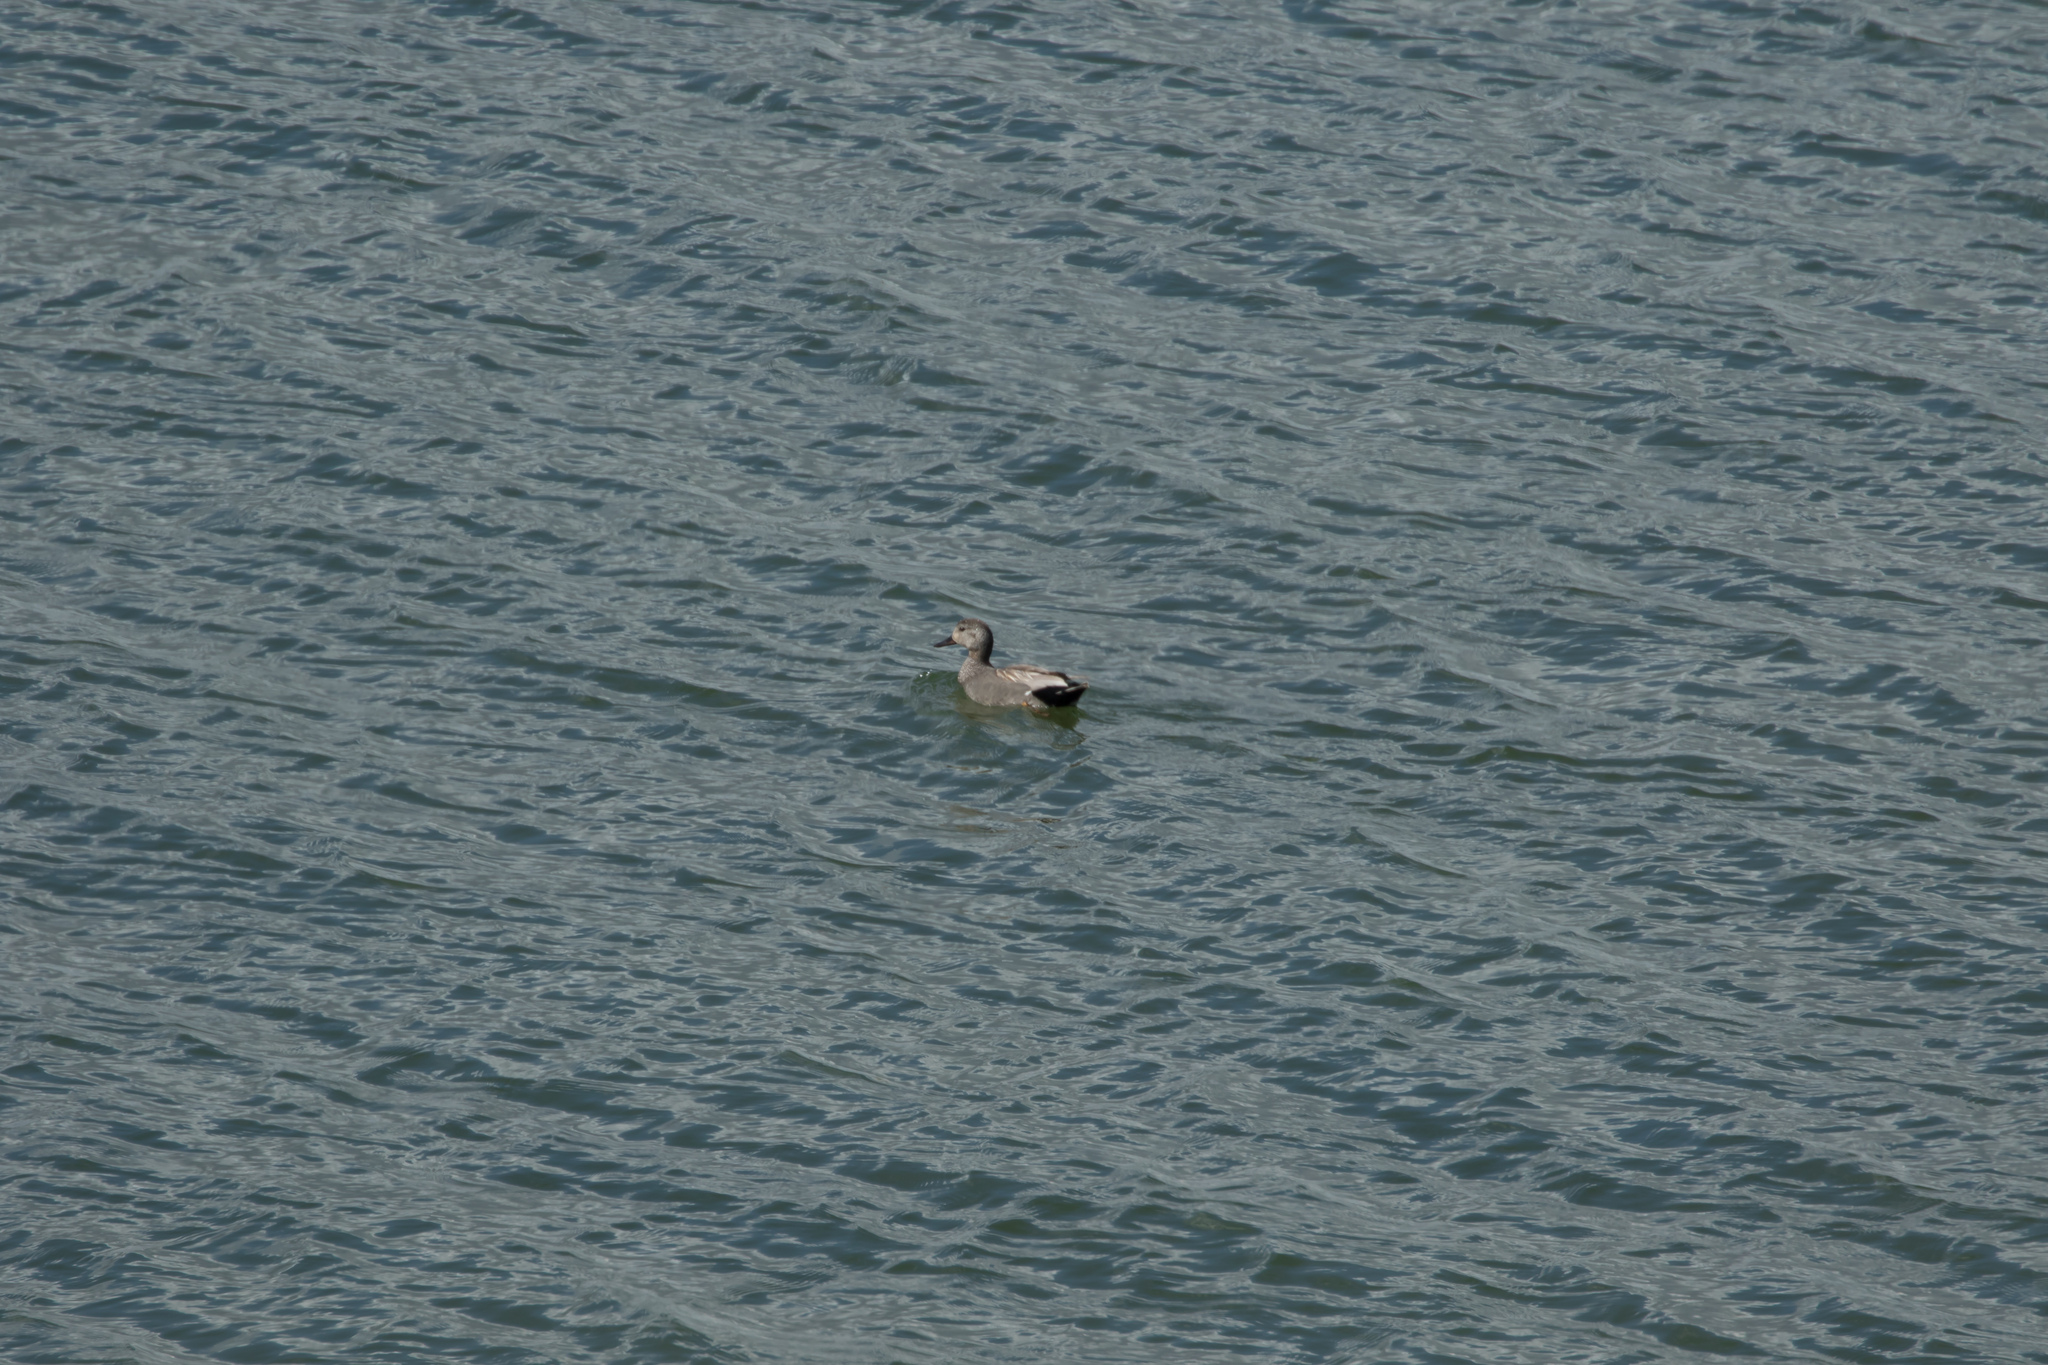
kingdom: Animalia
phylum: Chordata
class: Aves
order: Anseriformes
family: Anatidae
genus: Mareca
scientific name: Mareca strepera
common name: Gadwall
